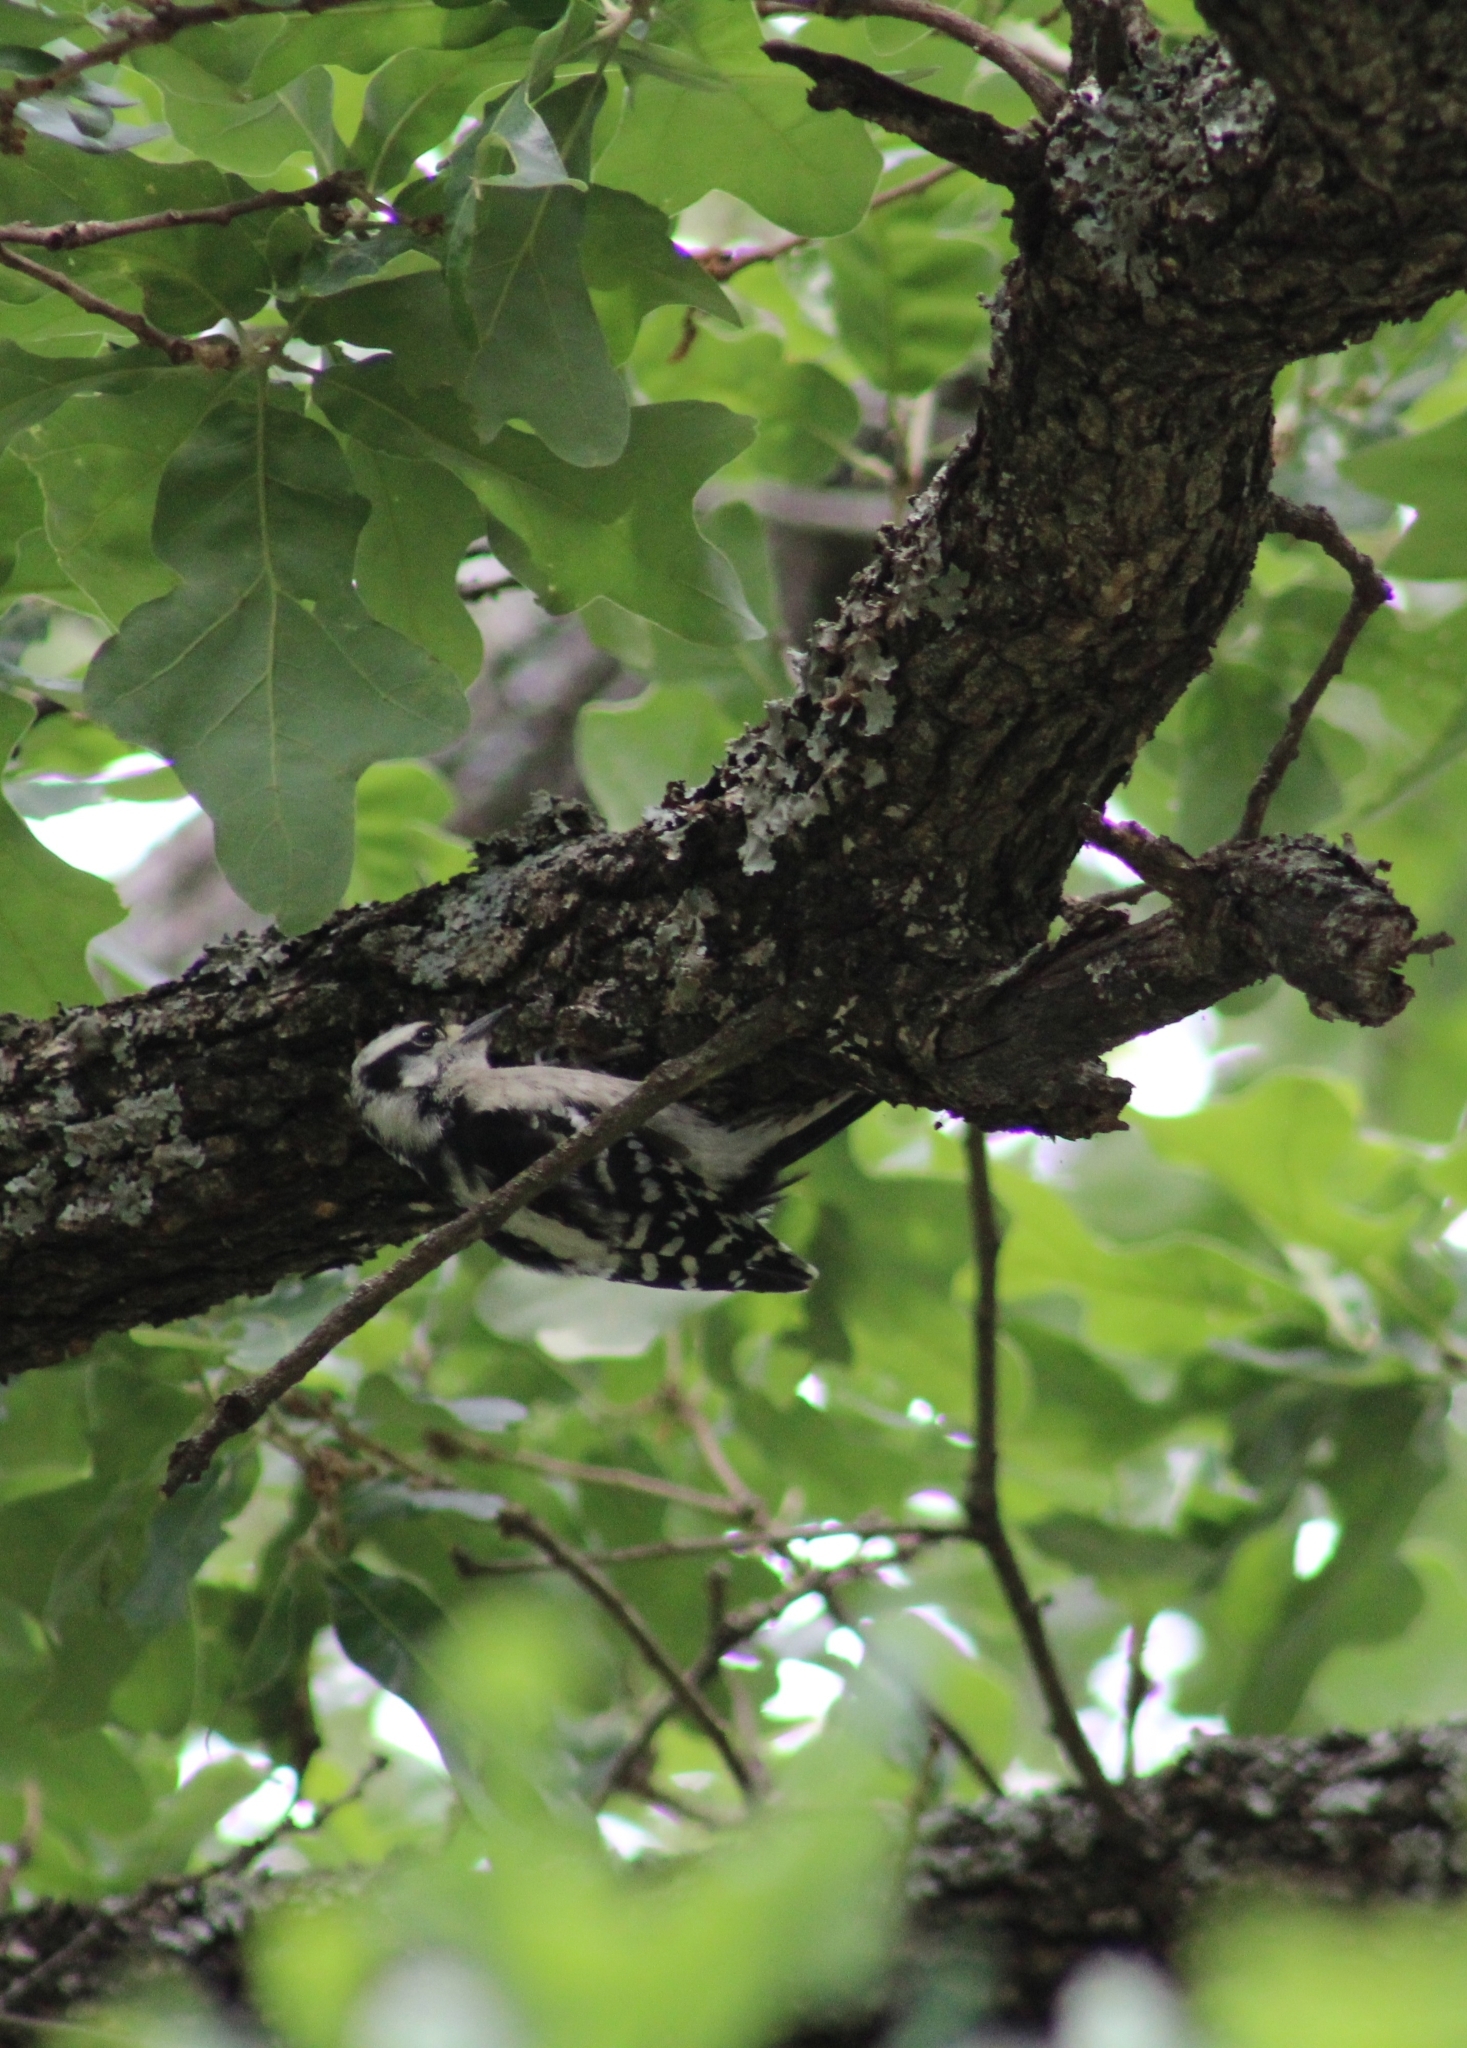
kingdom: Animalia
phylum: Chordata
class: Aves
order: Piciformes
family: Picidae
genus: Dryobates
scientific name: Dryobates pubescens
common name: Downy woodpecker
